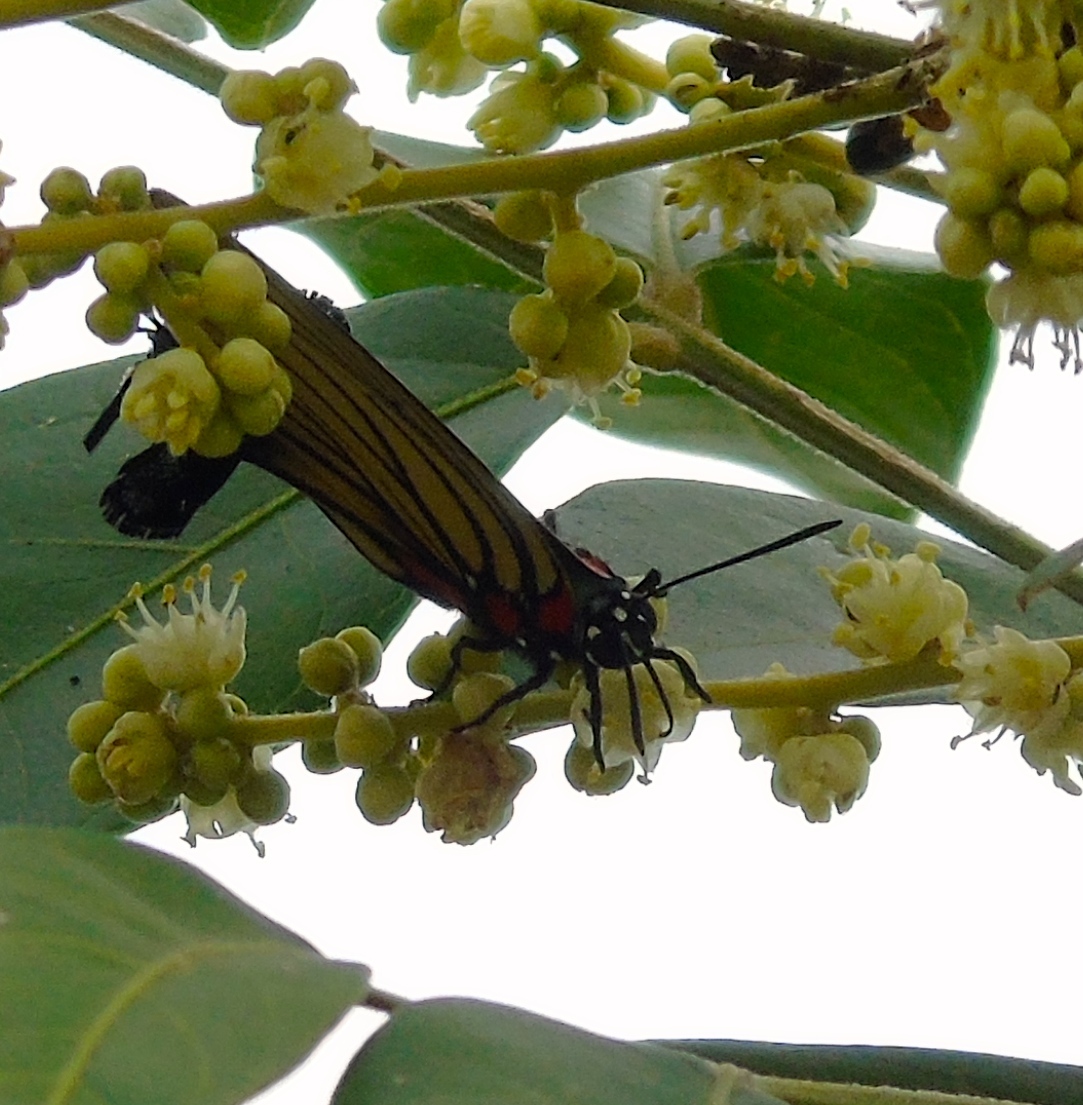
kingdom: Animalia
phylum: Arthropoda
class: Insecta
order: Lepidoptera
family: Lycaenidae
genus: Thecla
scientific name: Thecla polybe
